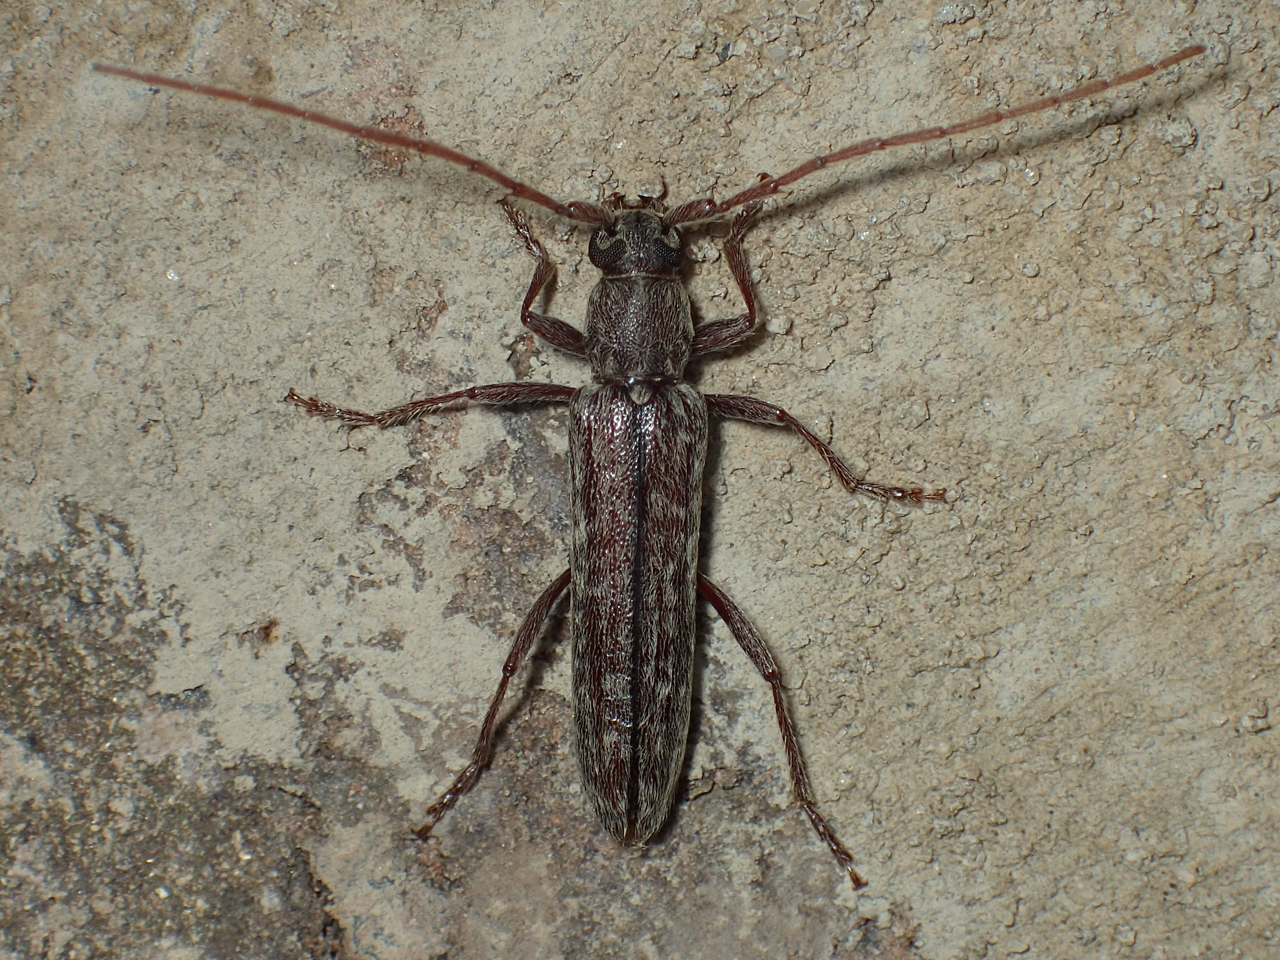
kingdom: Animalia
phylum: Arthropoda
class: Insecta
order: Coleoptera
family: Cerambycidae
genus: Anelaphus
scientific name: Anelaphus villosus
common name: Twig pruner
